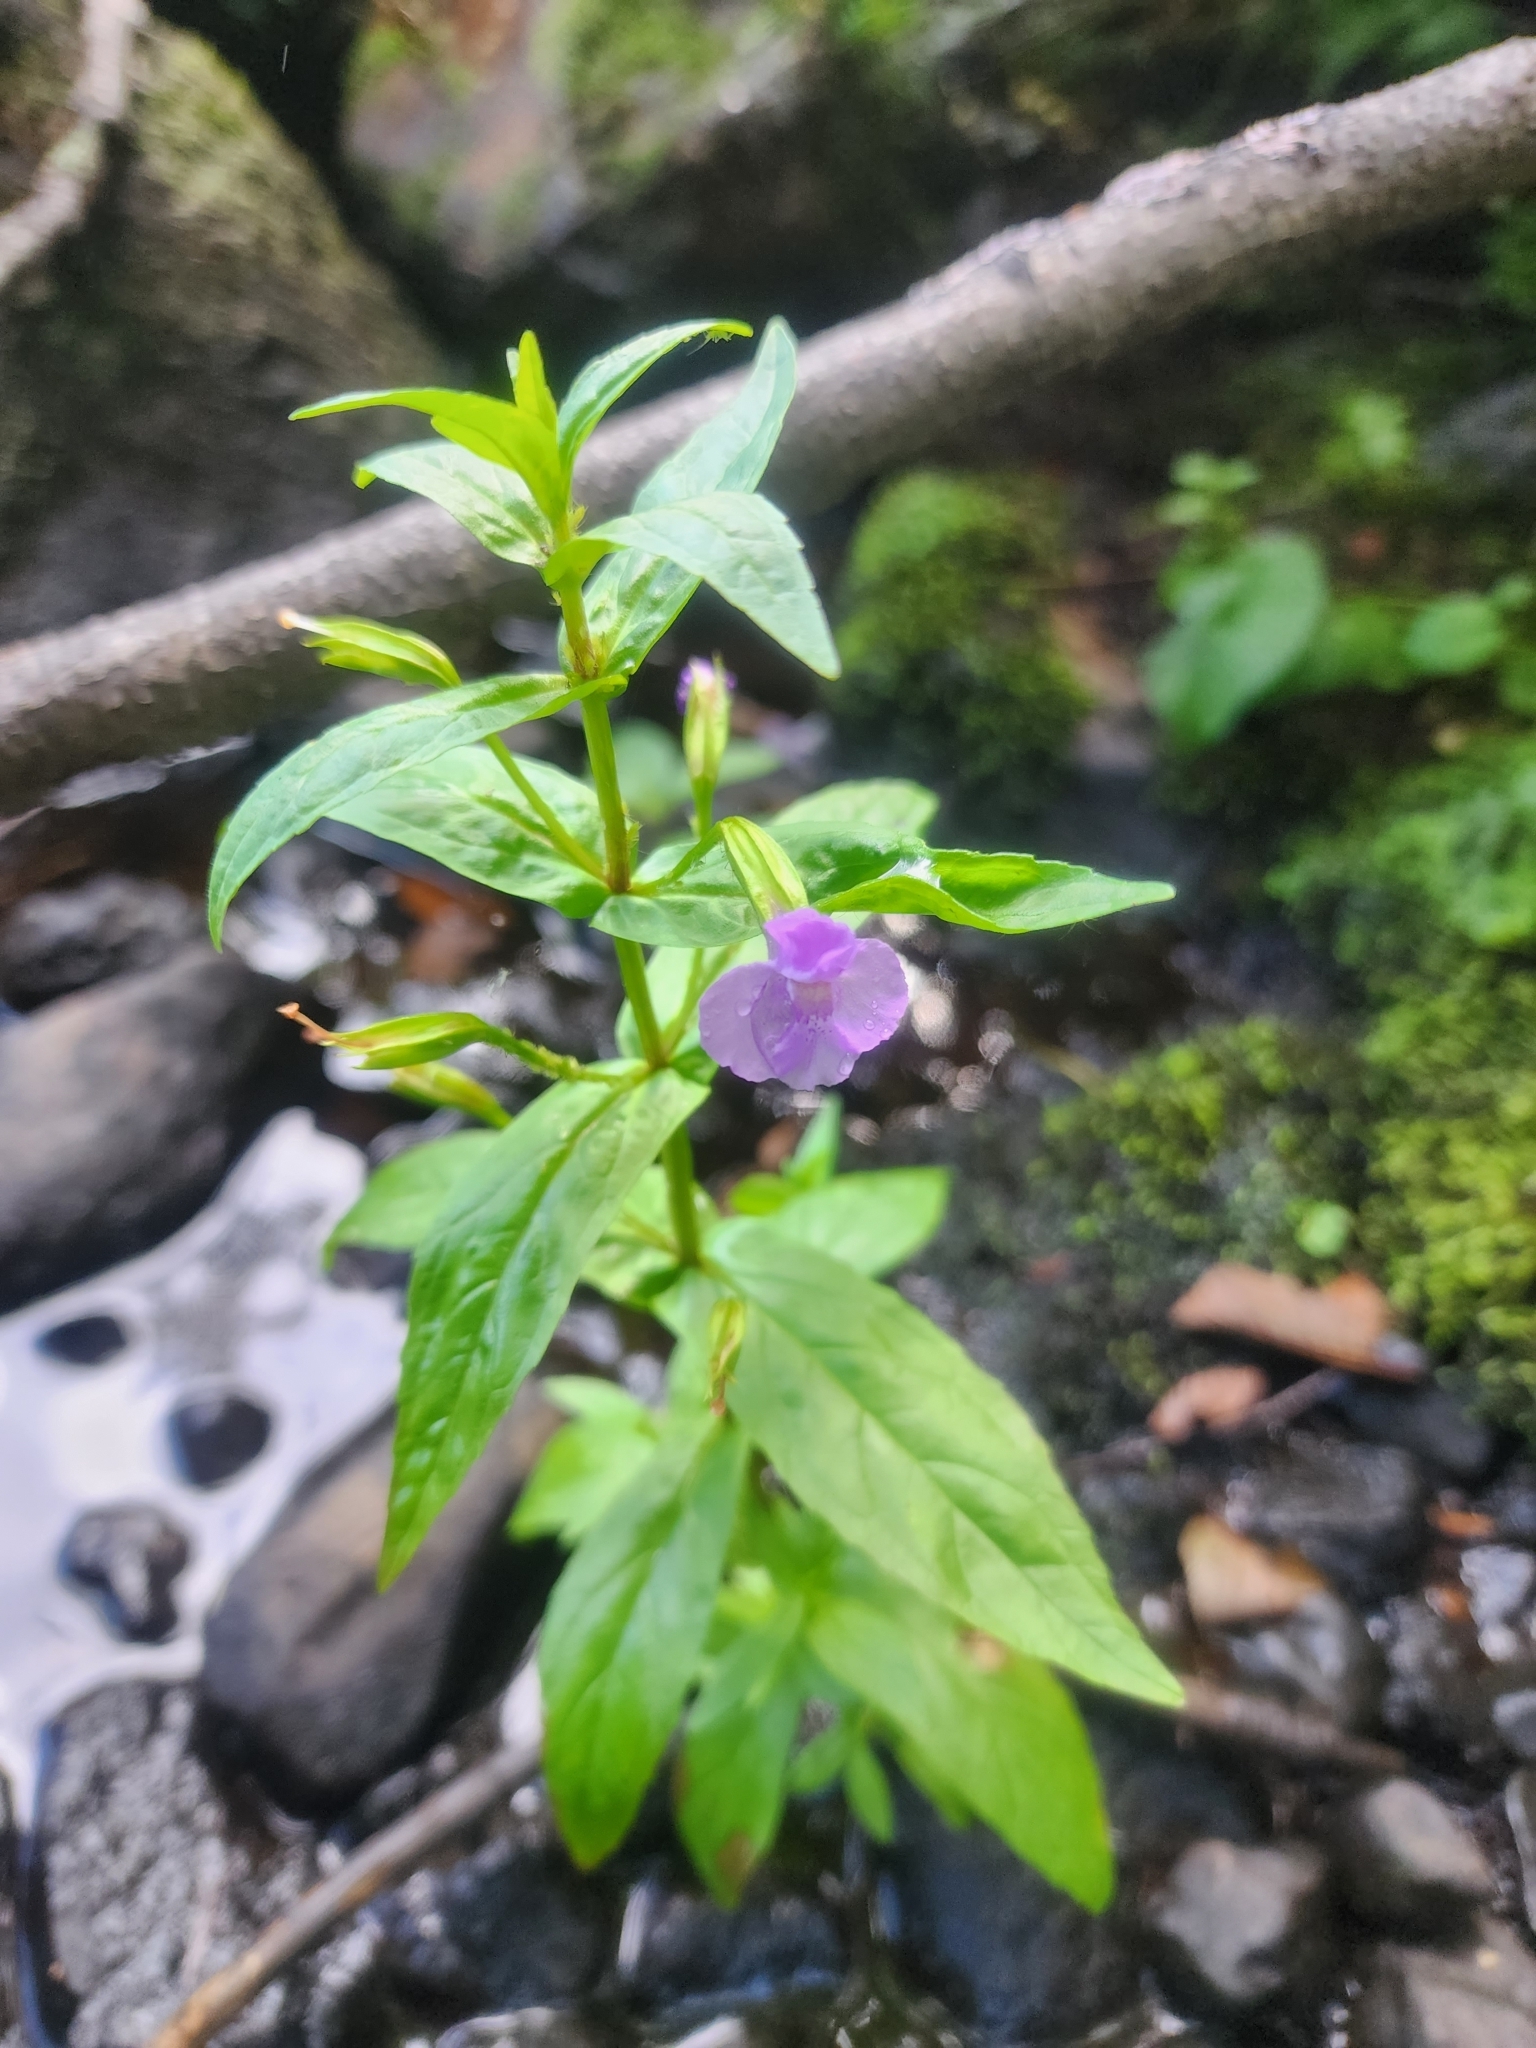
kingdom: Plantae
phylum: Tracheophyta
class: Magnoliopsida
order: Lamiales
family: Phrymaceae
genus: Mimulus
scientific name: Mimulus ringens
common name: Allegheny monkeyflower
